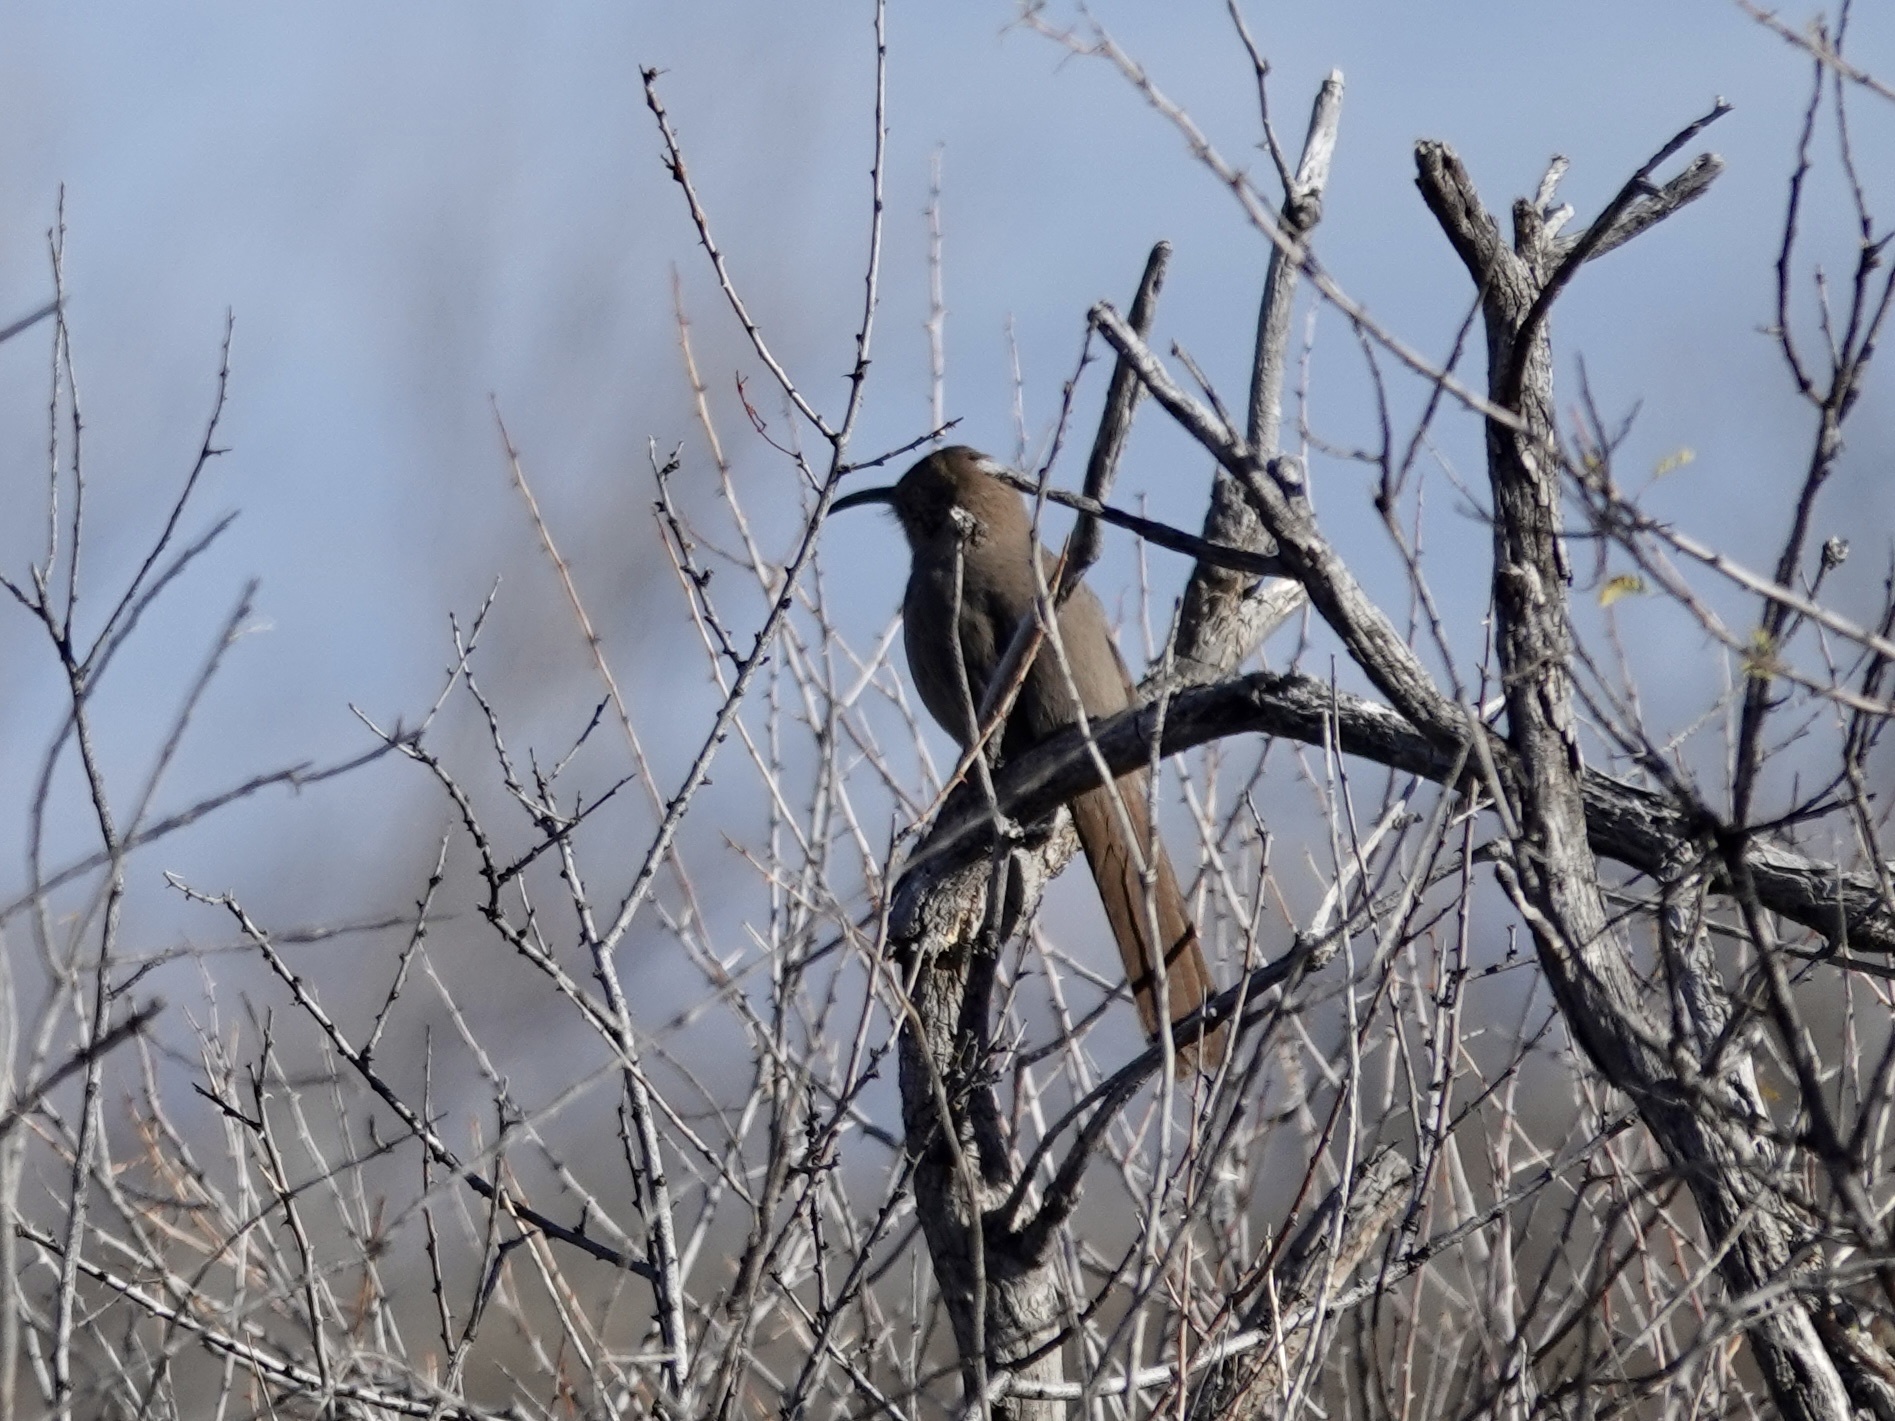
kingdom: Animalia
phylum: Chordata
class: Aves
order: Passeriformes
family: Mimidae
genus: Toxostoma
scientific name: Toxostoma crissale
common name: Crissal thrasher
